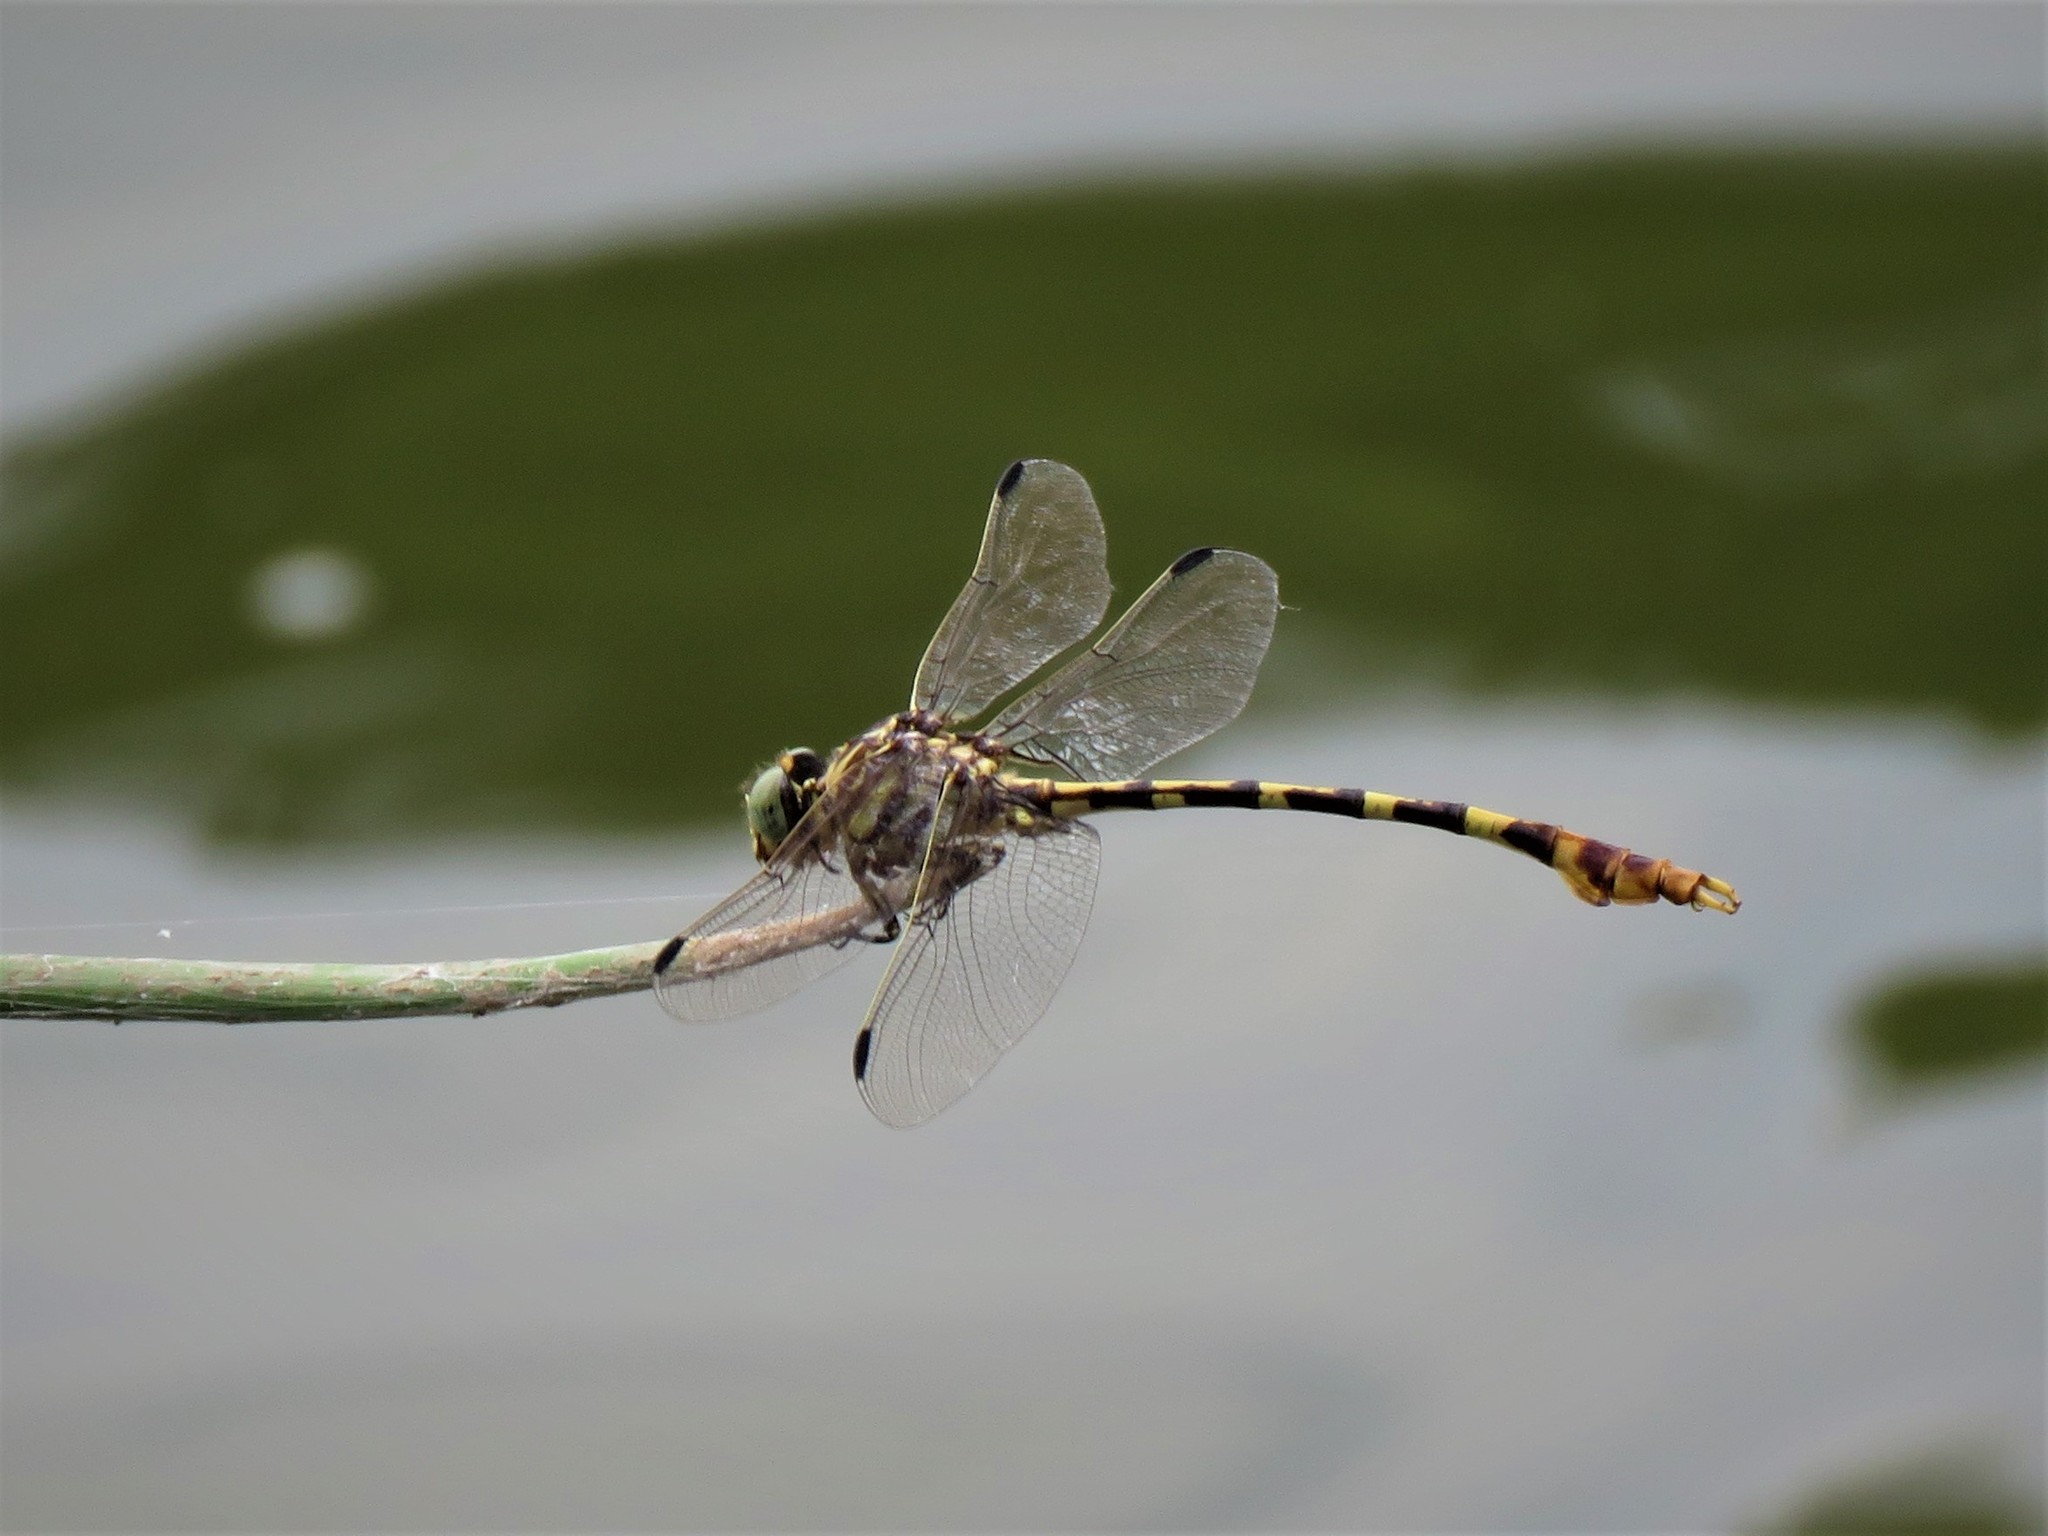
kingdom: Animalia
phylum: Arthropoda
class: Insecta
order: Odonata
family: Gomphidae
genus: Phyllogomphoides
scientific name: Phyllogomphoides stigmatus
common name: Four-striped leaftail
